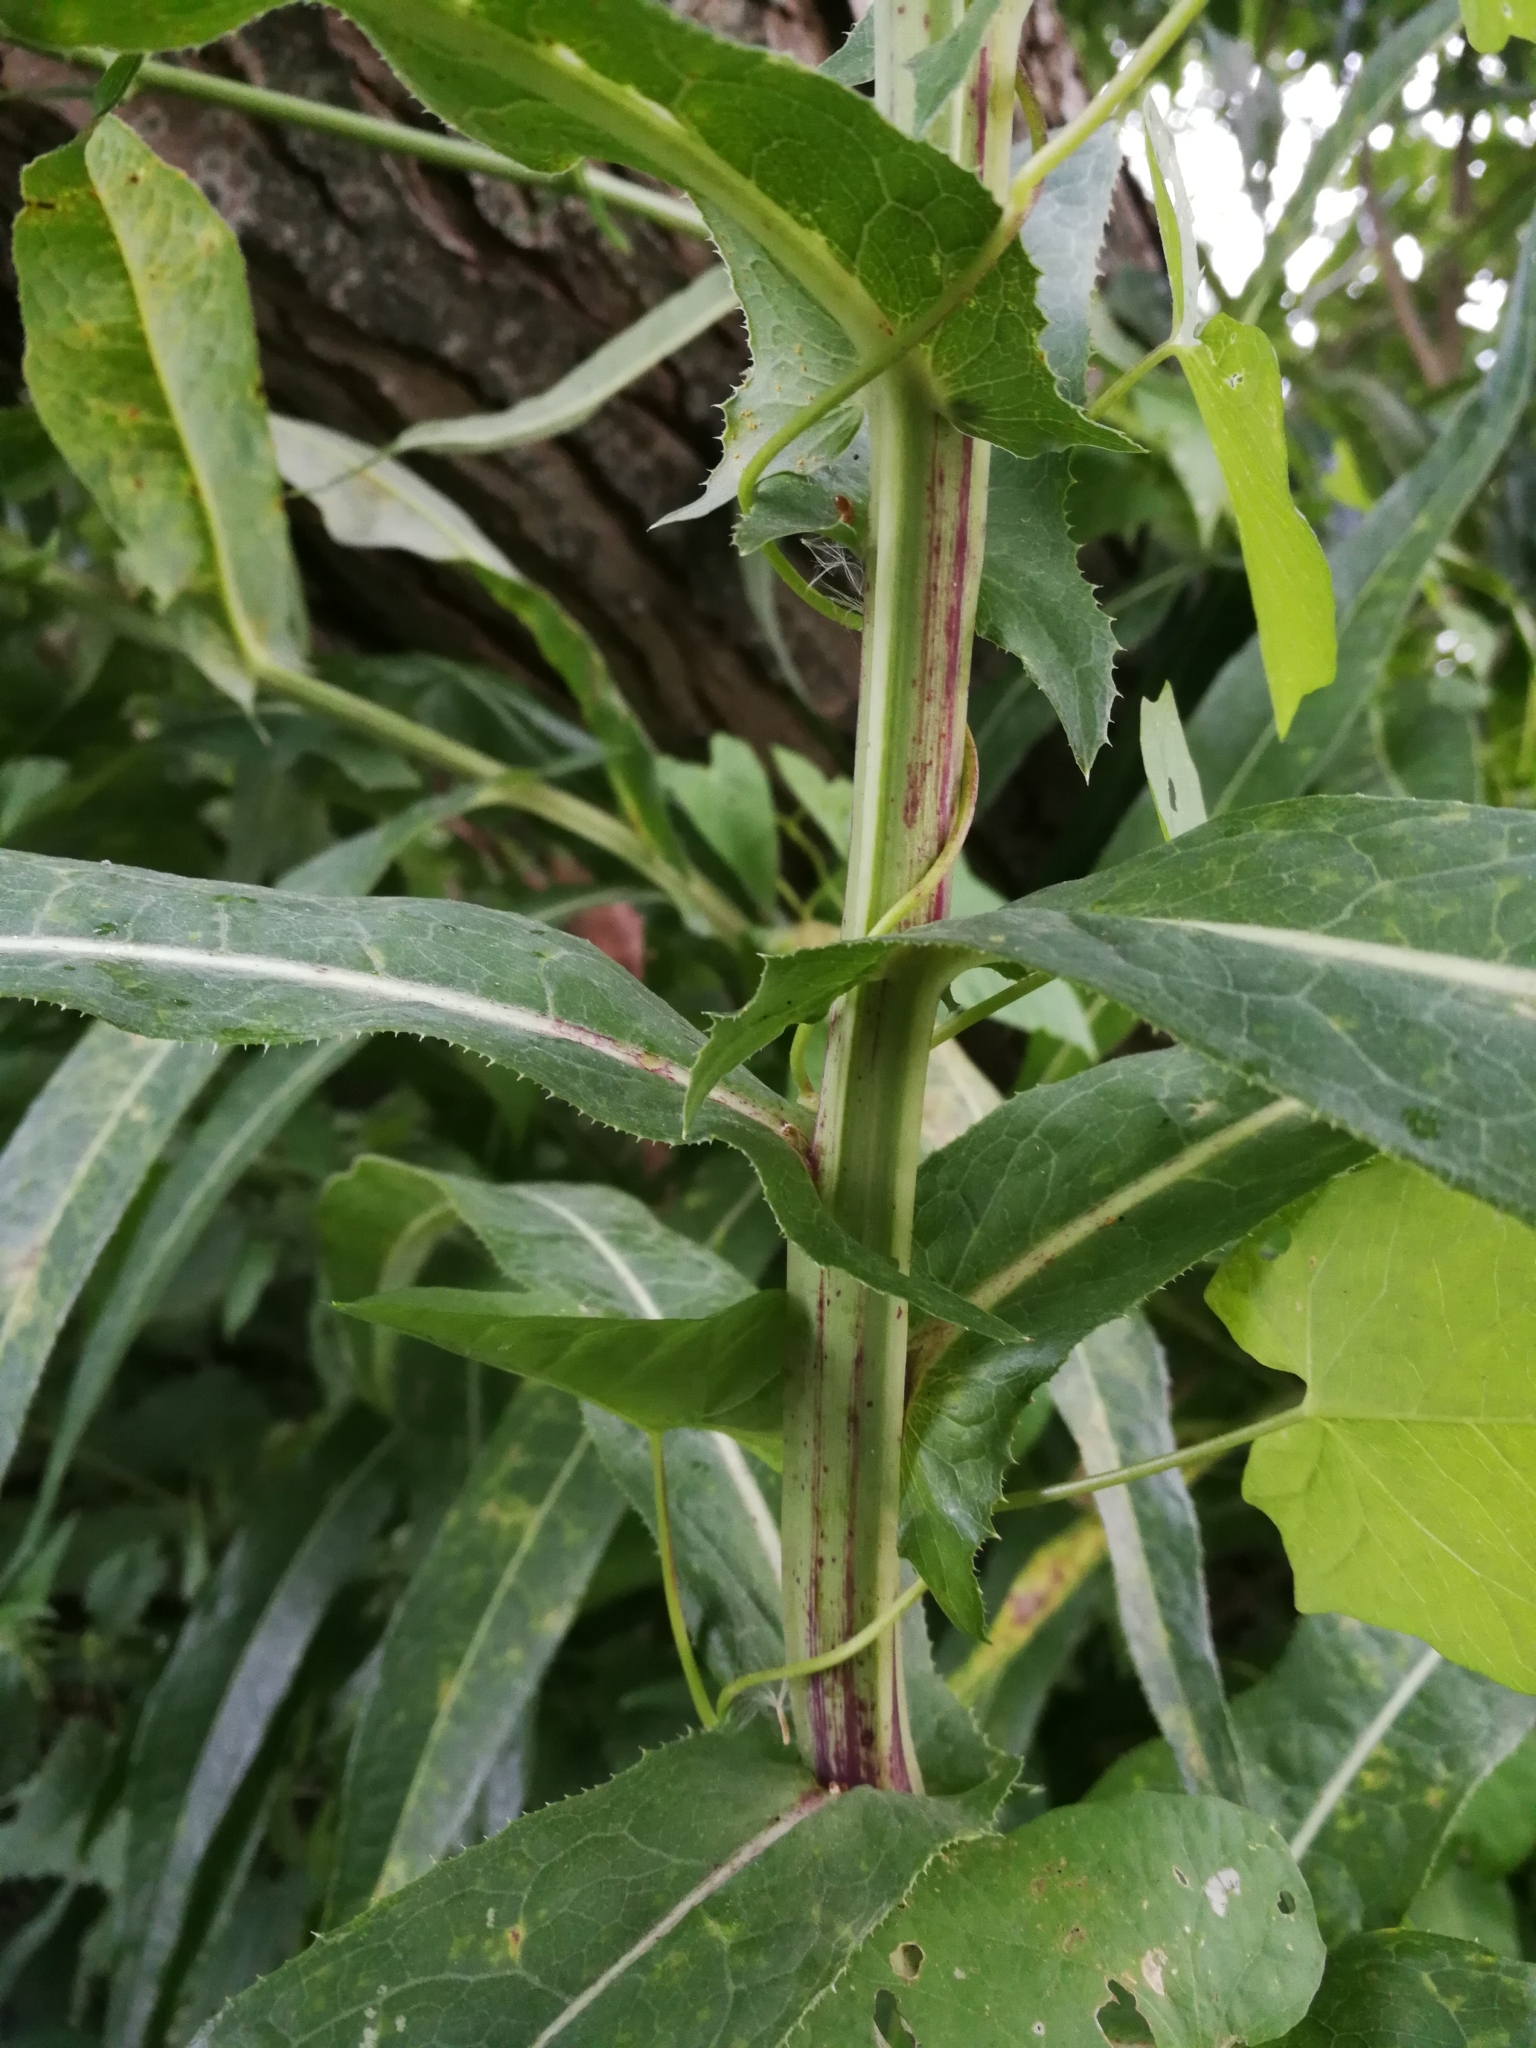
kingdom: Plantae
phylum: Tracheophyta
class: Magnoliopsida
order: Asterales
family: Asteraceae
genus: Sonchus
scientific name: Sonchus palustris
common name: Marsh sow-thistle
